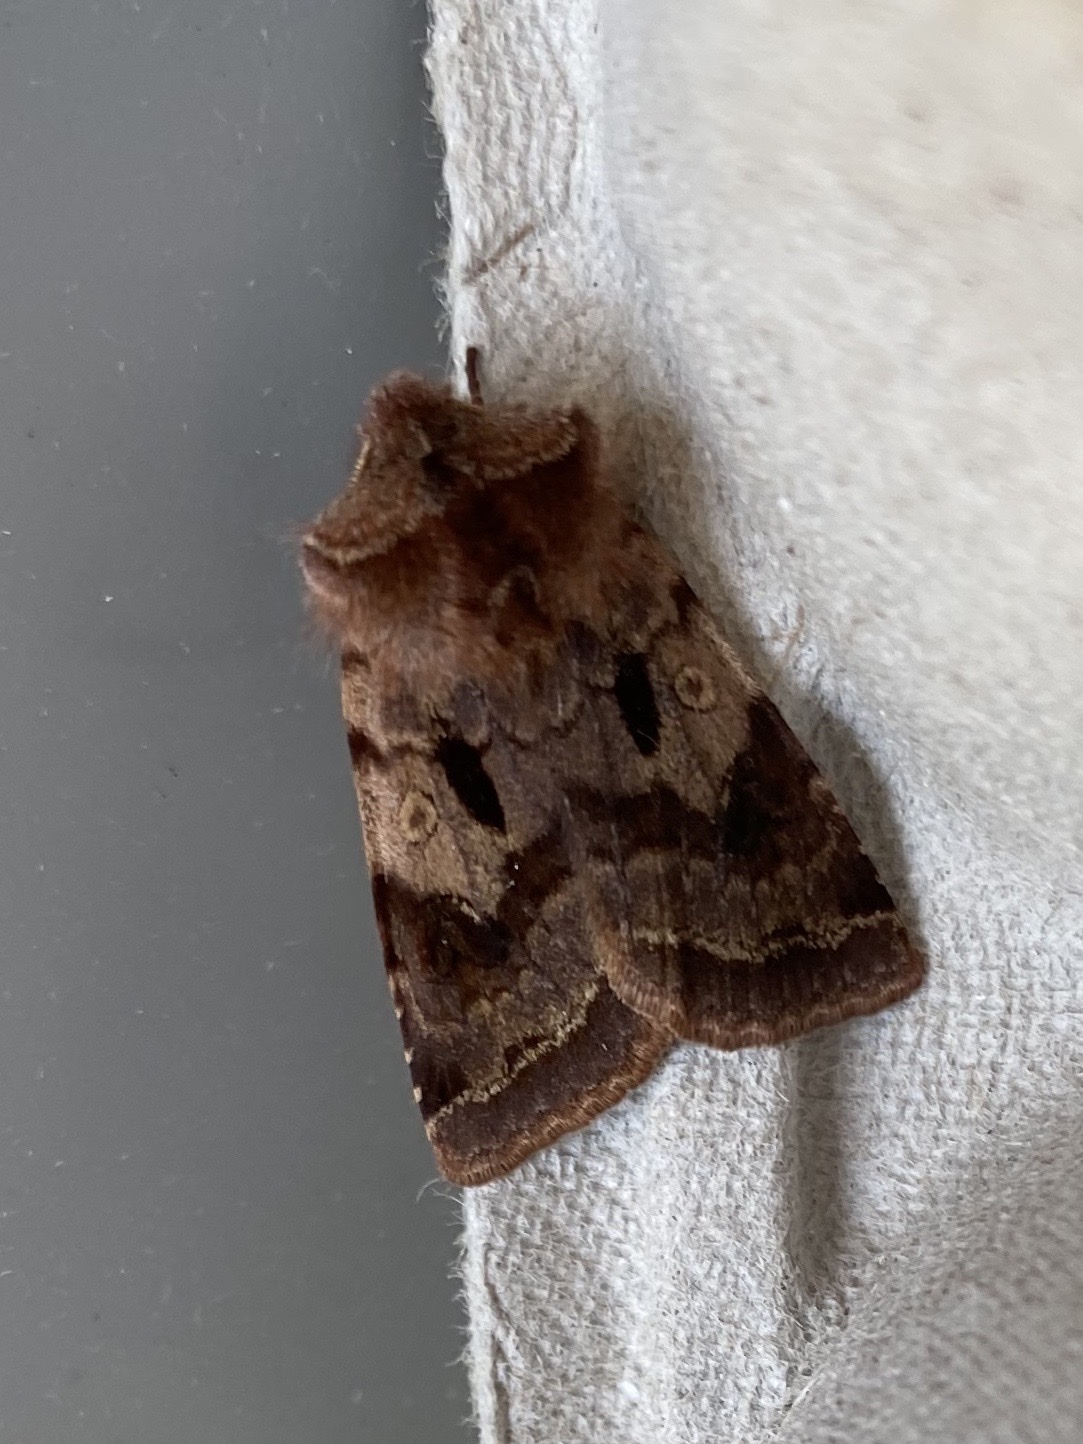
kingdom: Animalia
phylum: Arthropoda
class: Insecta
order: Lepidoptera
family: Noctuidae
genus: Cerastis
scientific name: Cerastis salicarum
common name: Willow dart
